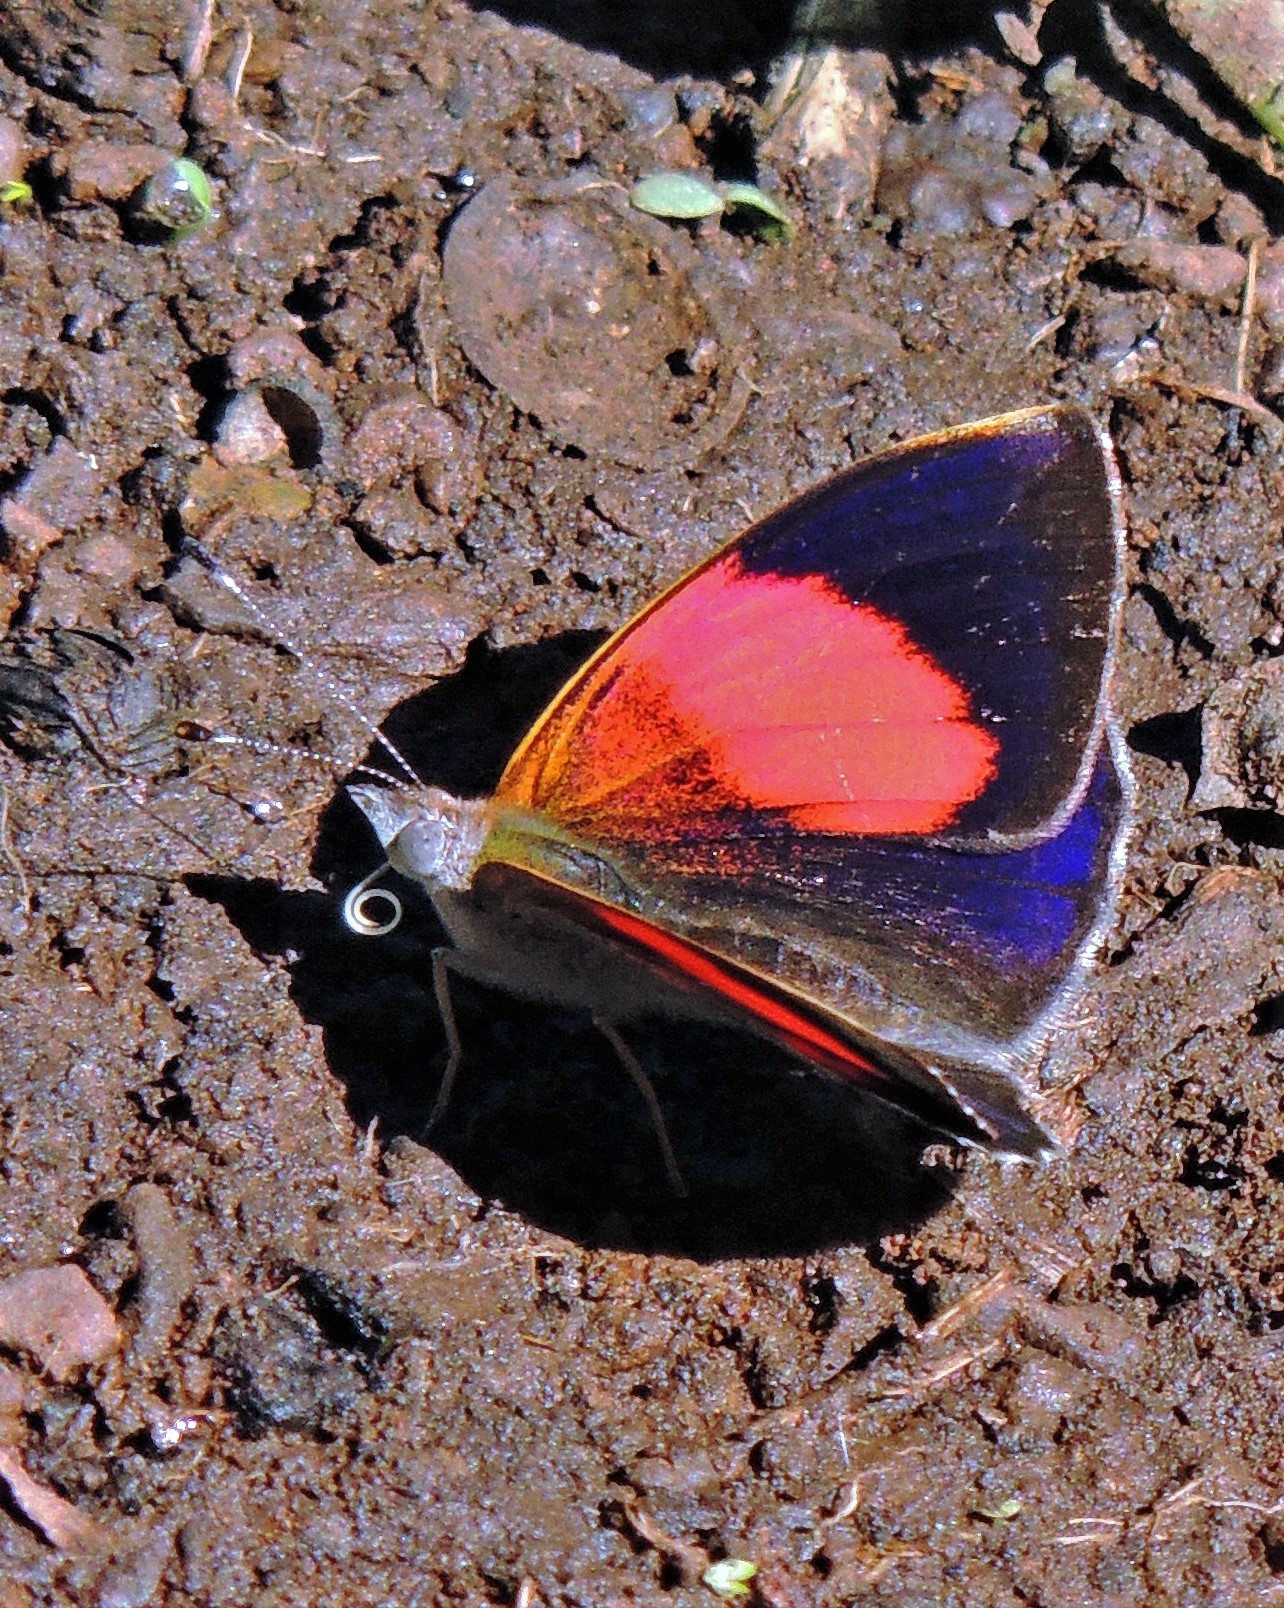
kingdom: Animalia
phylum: Arthropoda
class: Insecta
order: Lepidoptera
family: Nymphalidae
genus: Haematera
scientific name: Haematera pyrame
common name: Blind eighty-eight
